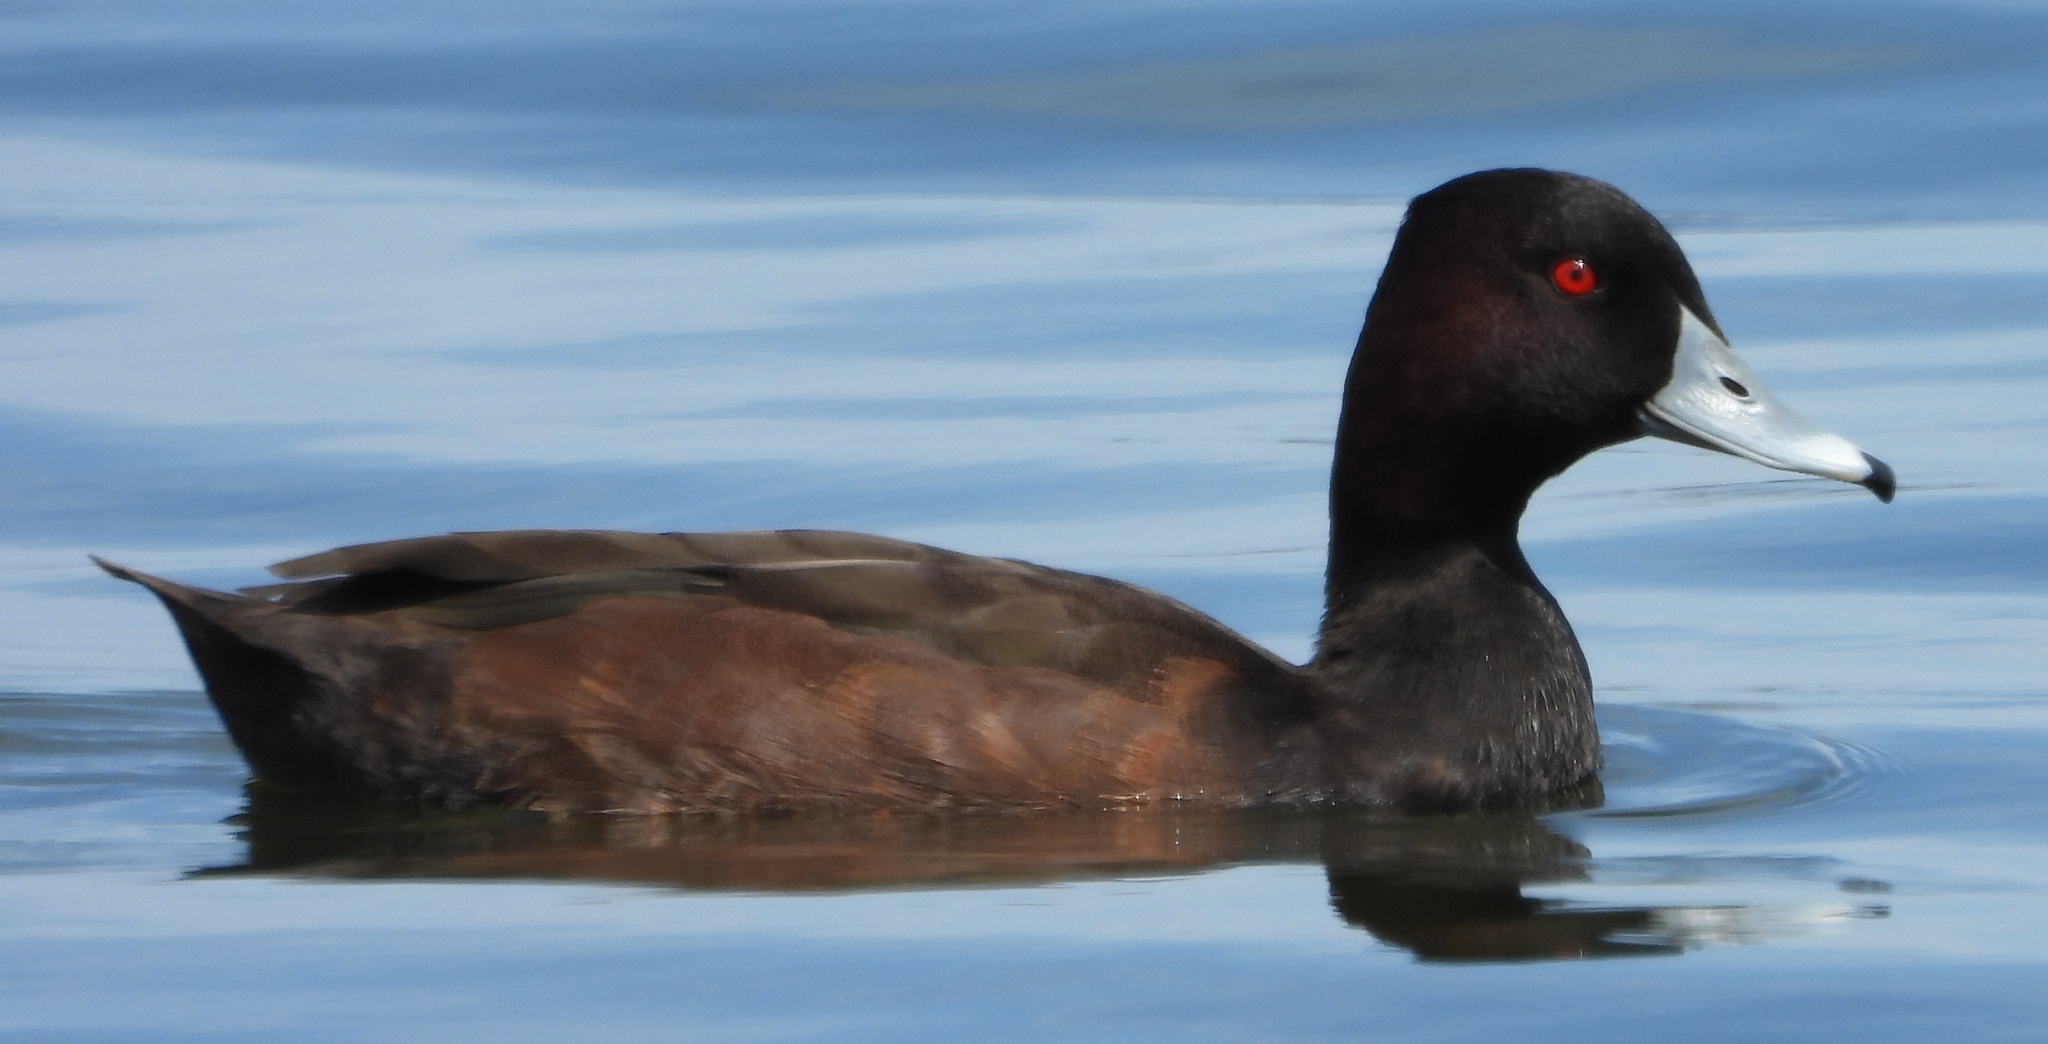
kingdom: Animalia
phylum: Chordata
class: Aves
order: Anseriformes
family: Anatidae
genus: Netta
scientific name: Netta erythrophthalma
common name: Southern pochard
